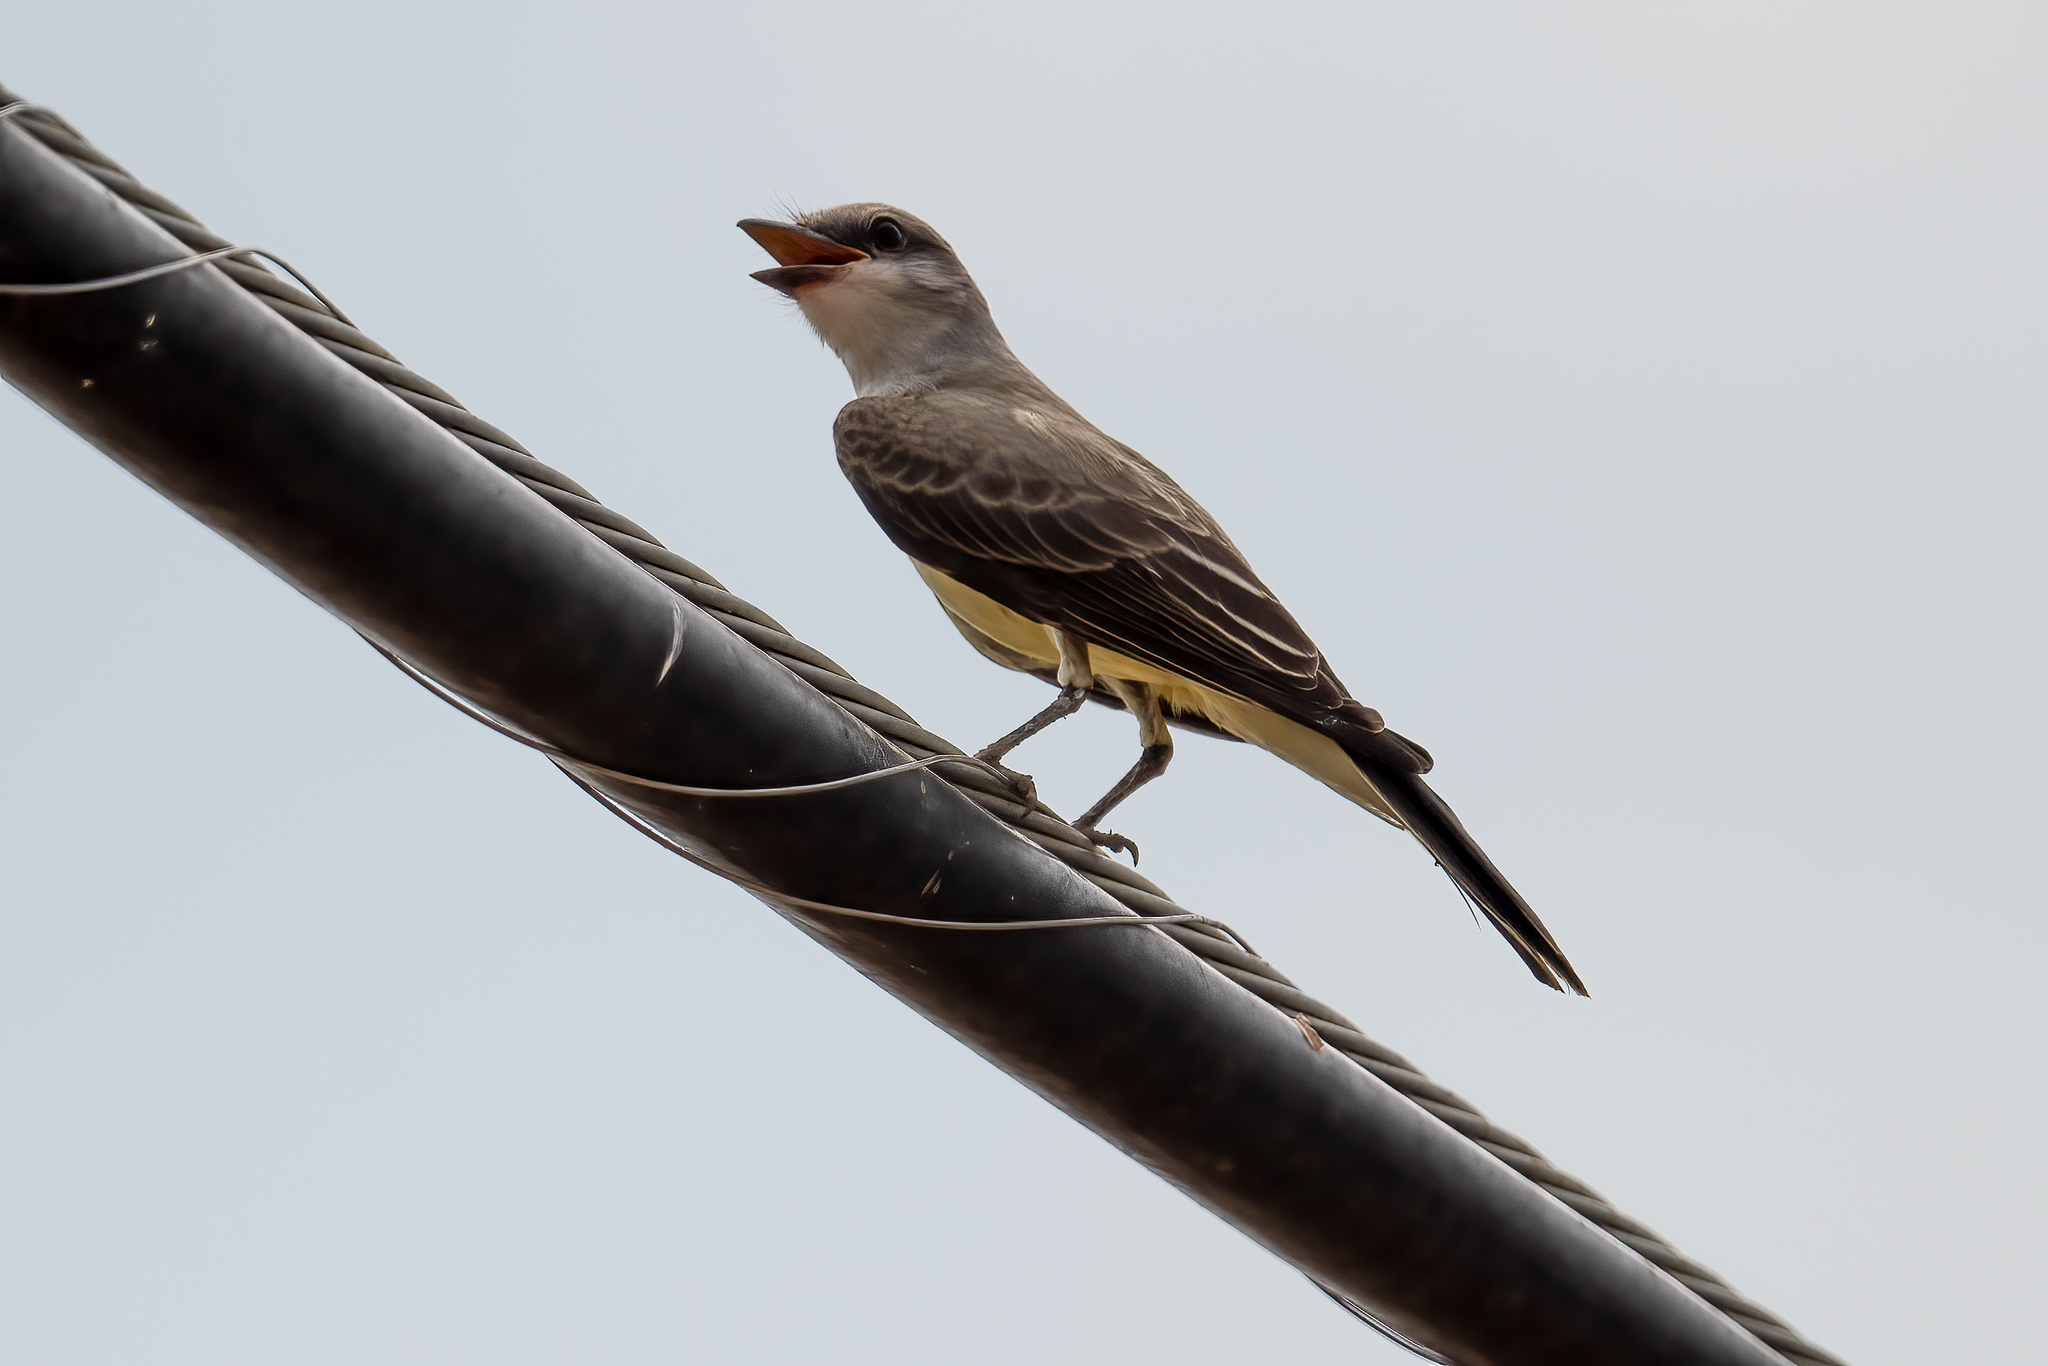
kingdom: Animalia
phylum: Chordata
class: Aves
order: Passeriformes
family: Tyrannidae
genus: Tyrannus
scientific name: Tyrannus verticalis
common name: Western kingbird
